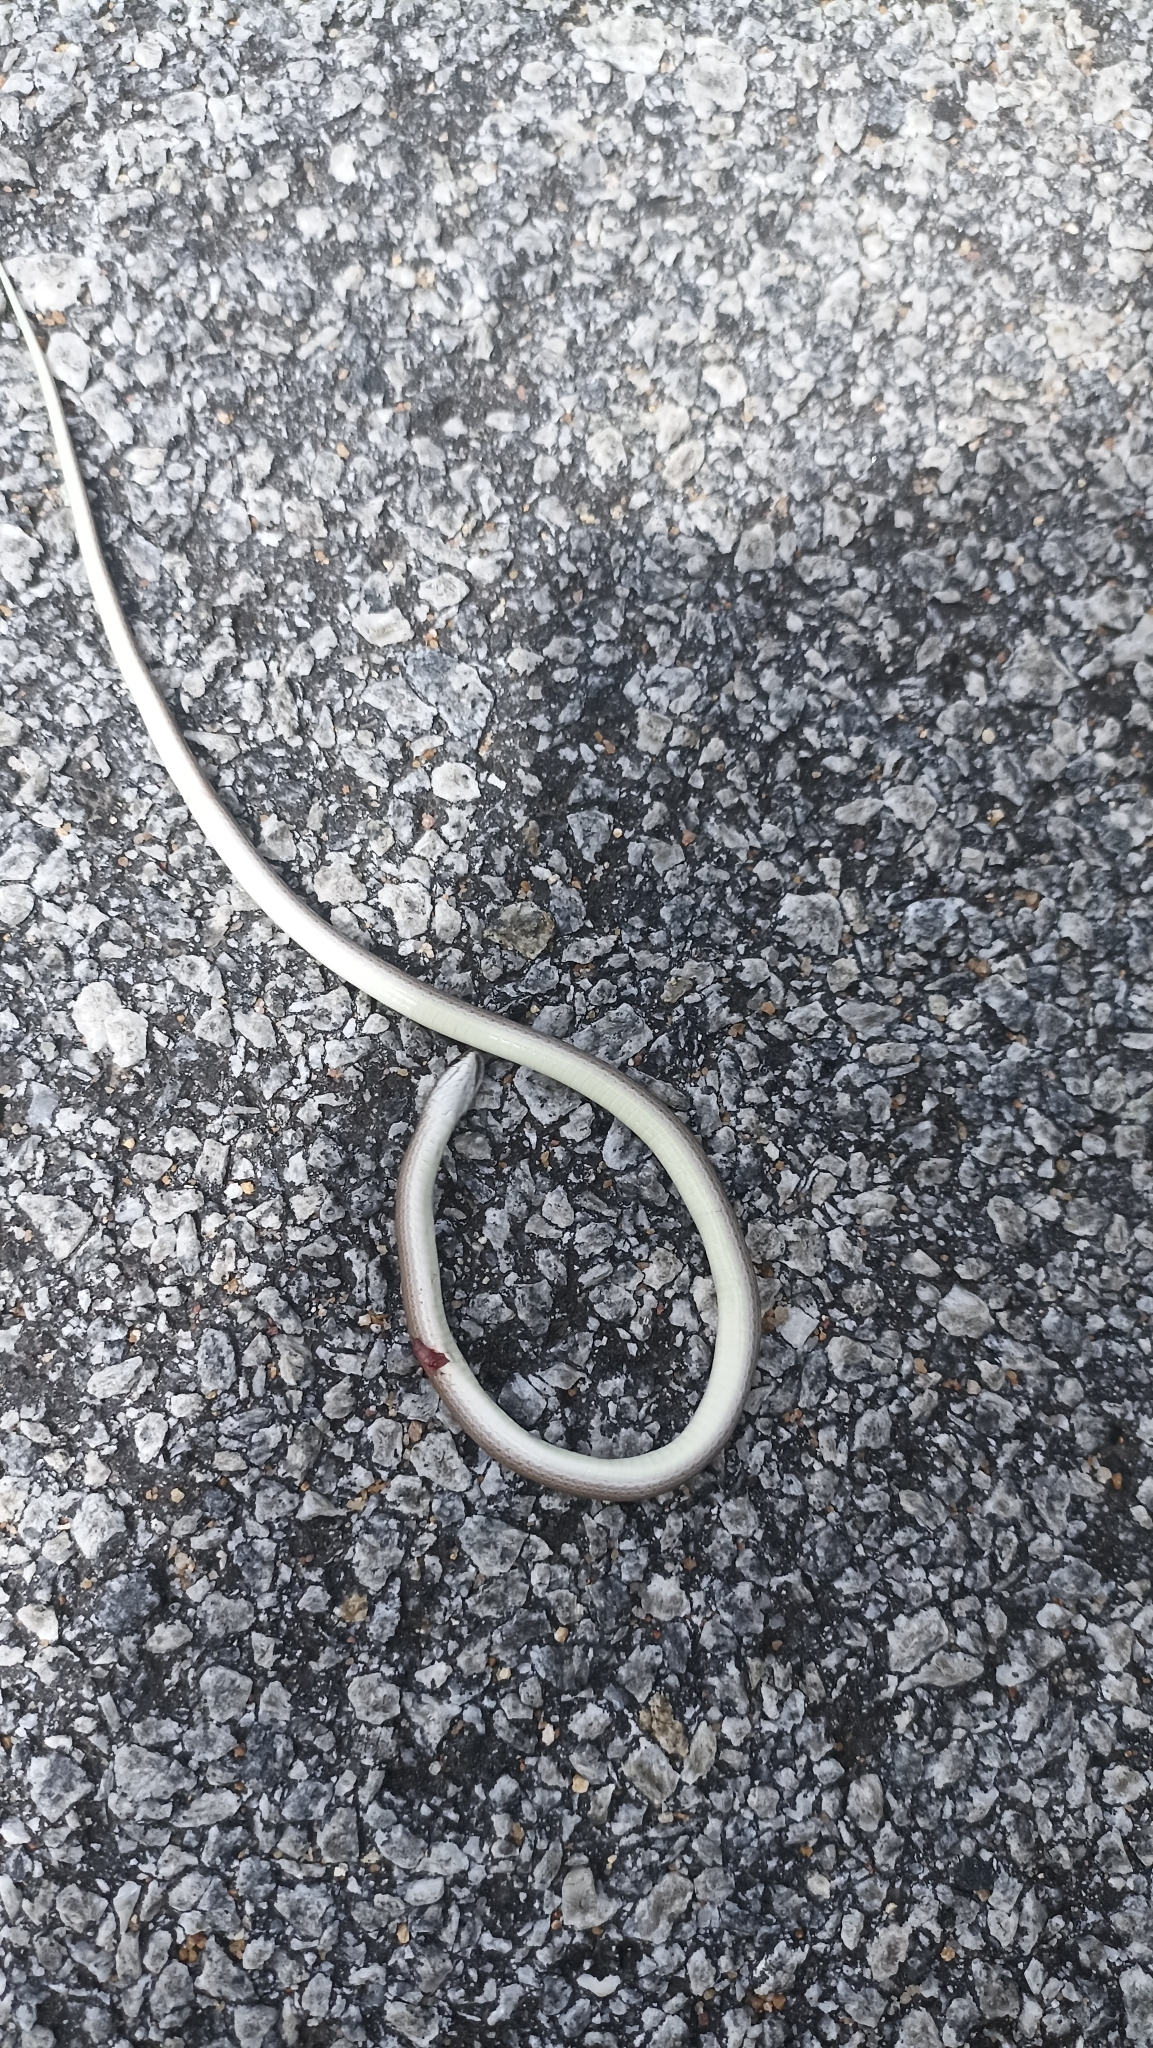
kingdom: Animalia
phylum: Chordata
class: Squamata
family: Colubridae
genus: Liopeltis
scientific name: Liopeltis calamaria
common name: Calamaria reed snake
